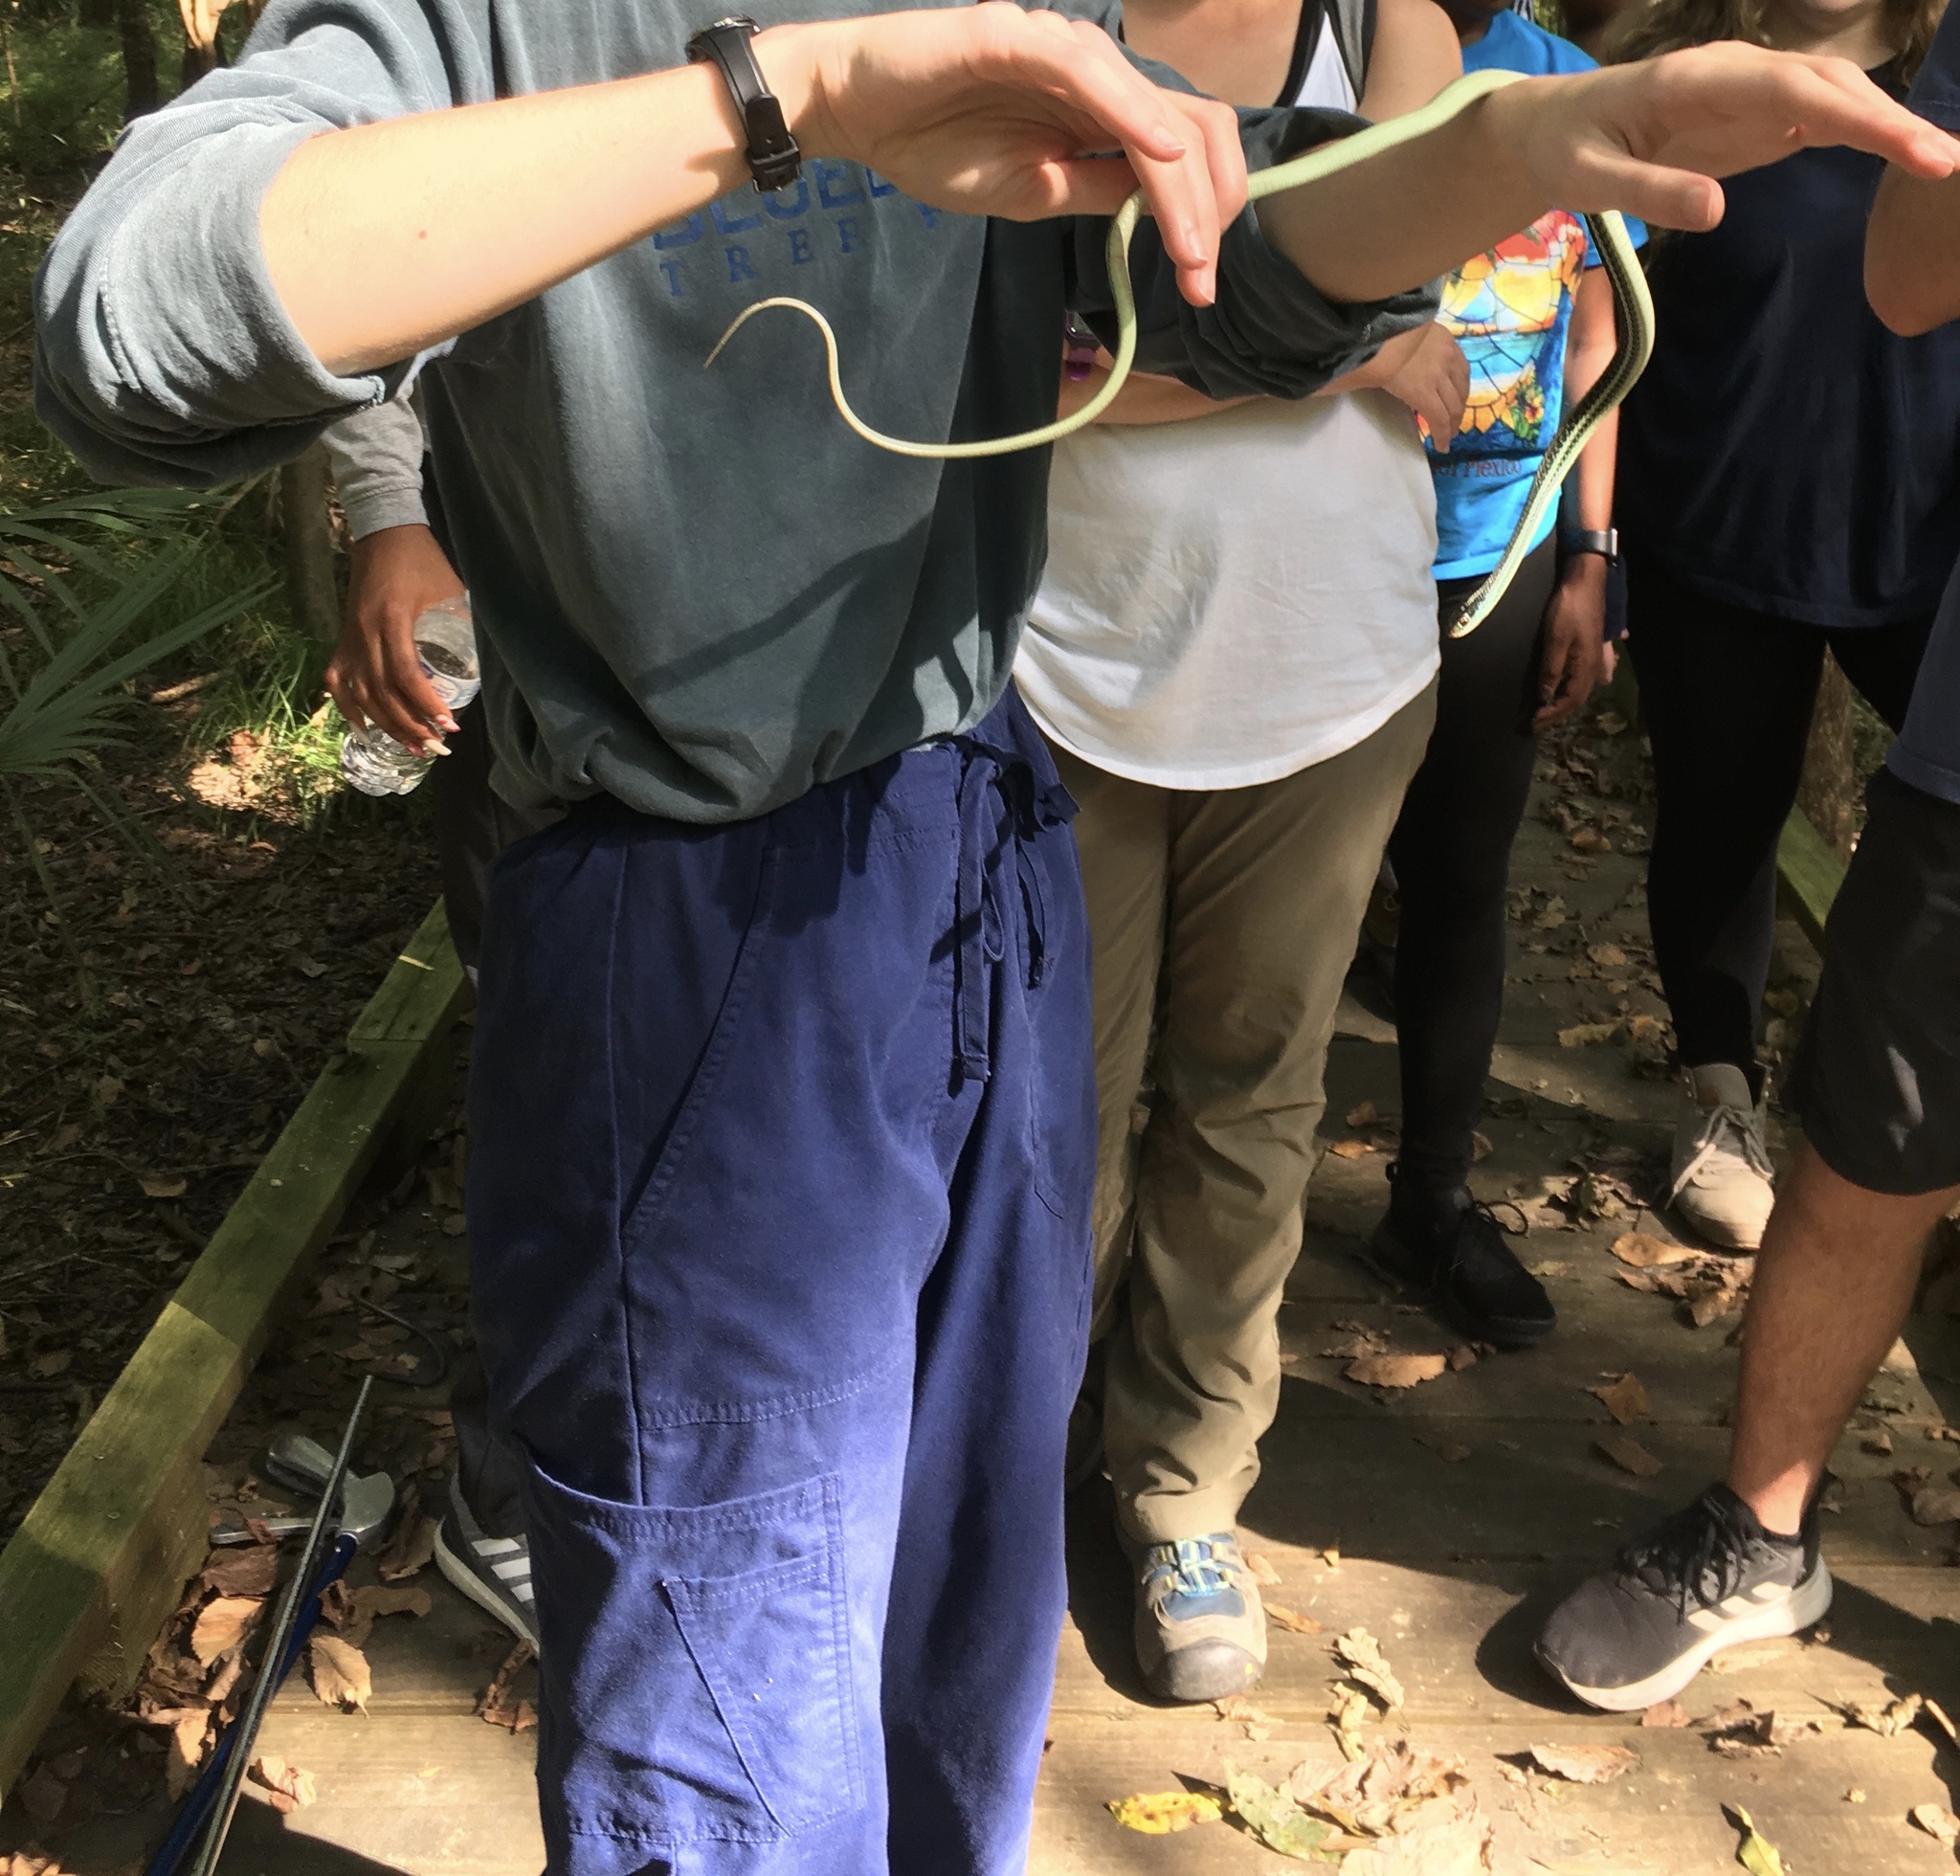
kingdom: Animalia
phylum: Chordata
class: Squamata
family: Colubridae
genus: Thamnophis
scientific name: Thamnophis proximus
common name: Western ribbon snake
